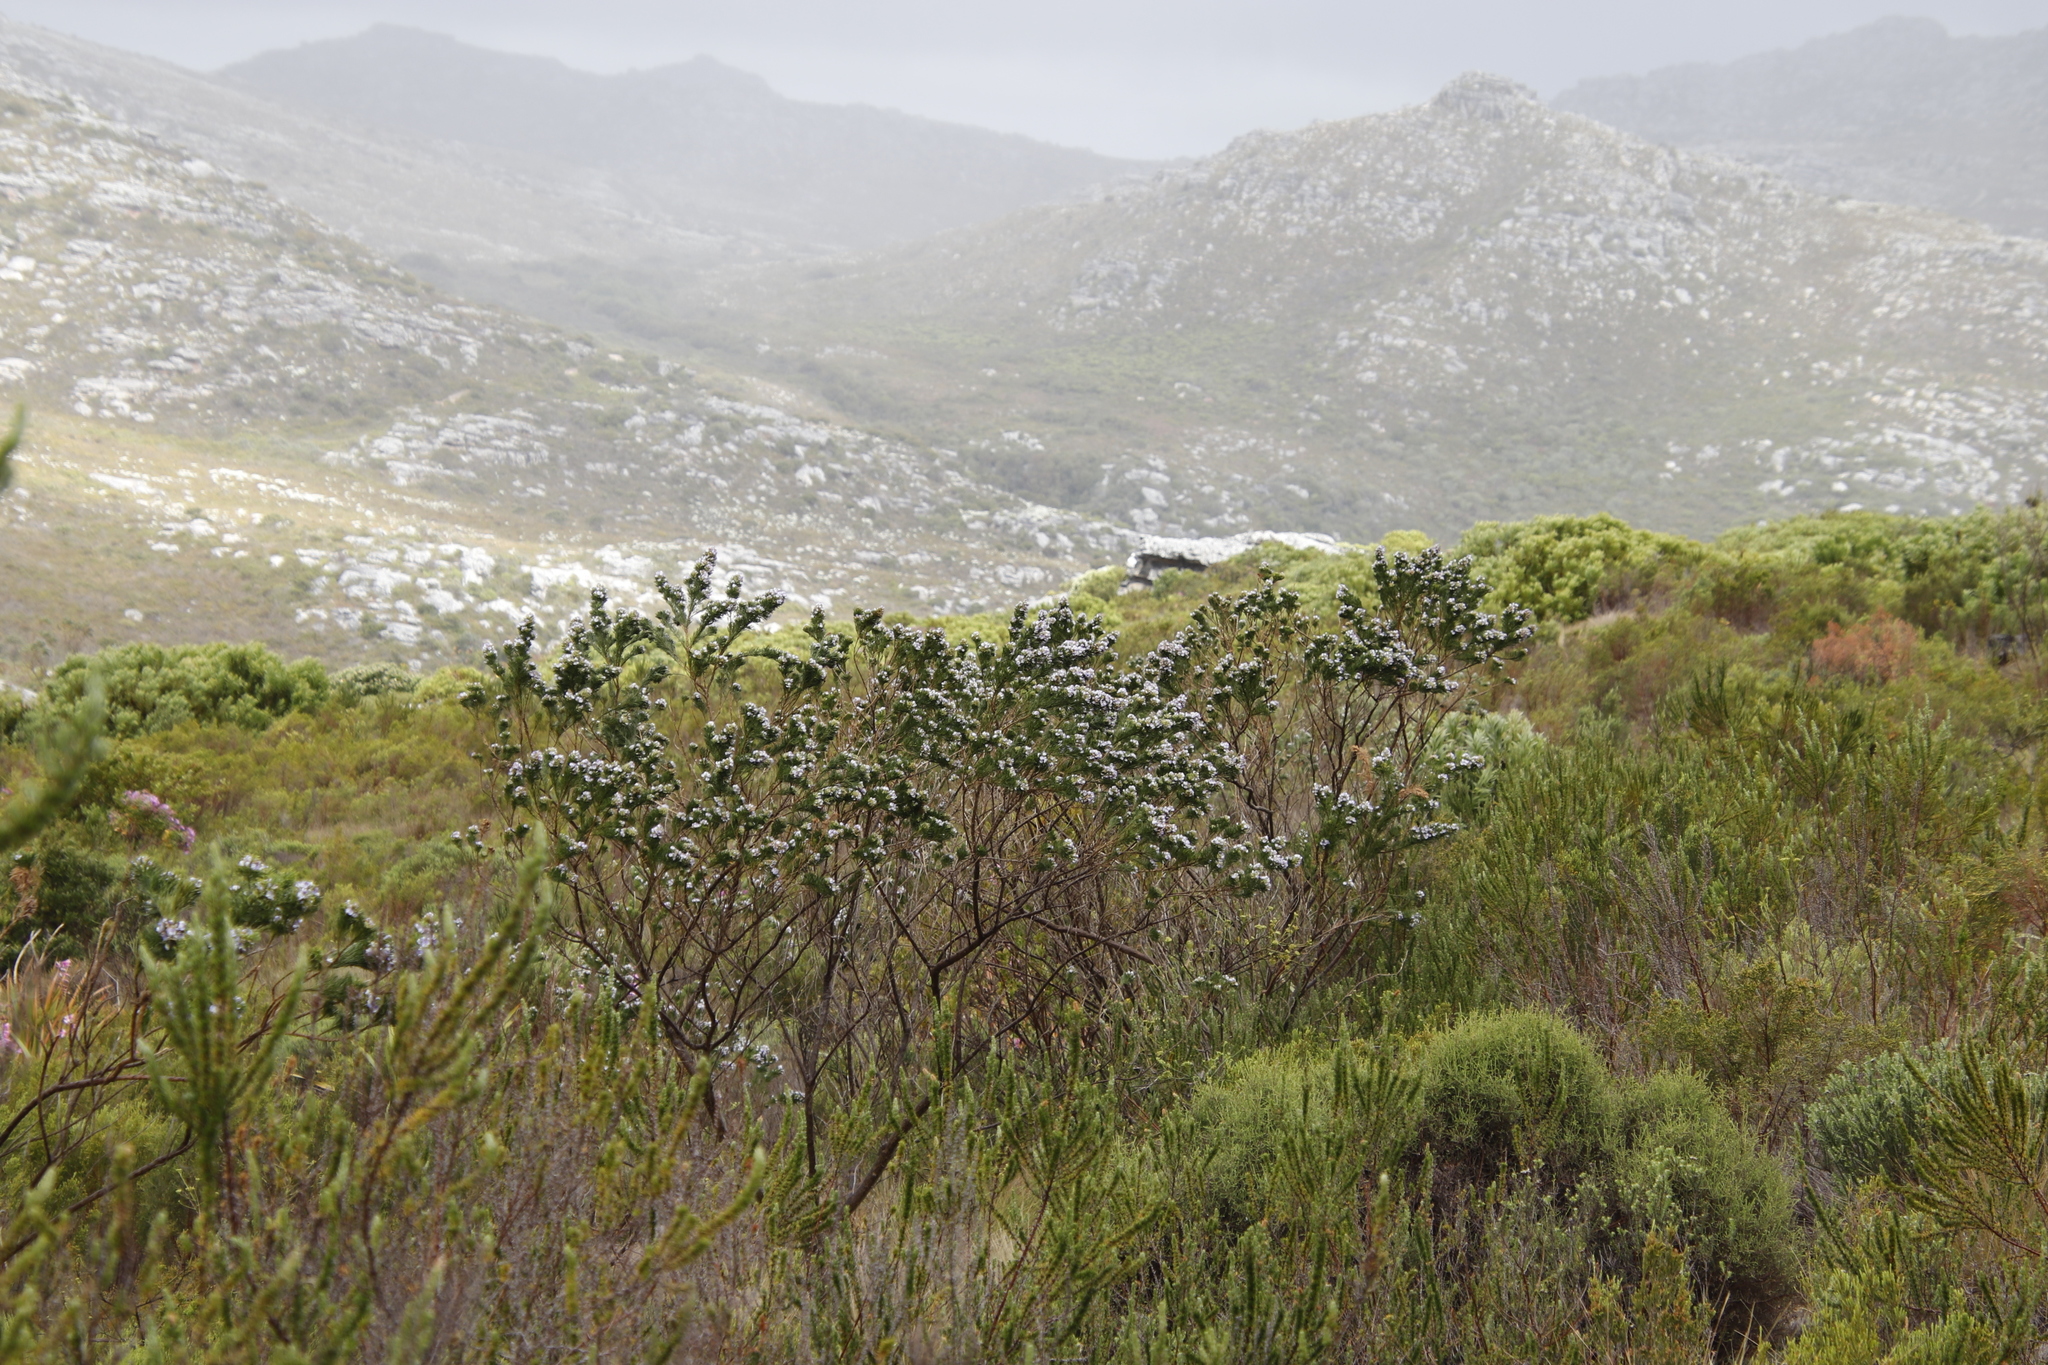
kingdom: Plantae
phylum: Tracheophyta
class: Magnoliopsida
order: Fabales
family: Fabaceae
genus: Psoralea
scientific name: Psoralea pinnata
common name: African scurfpea
